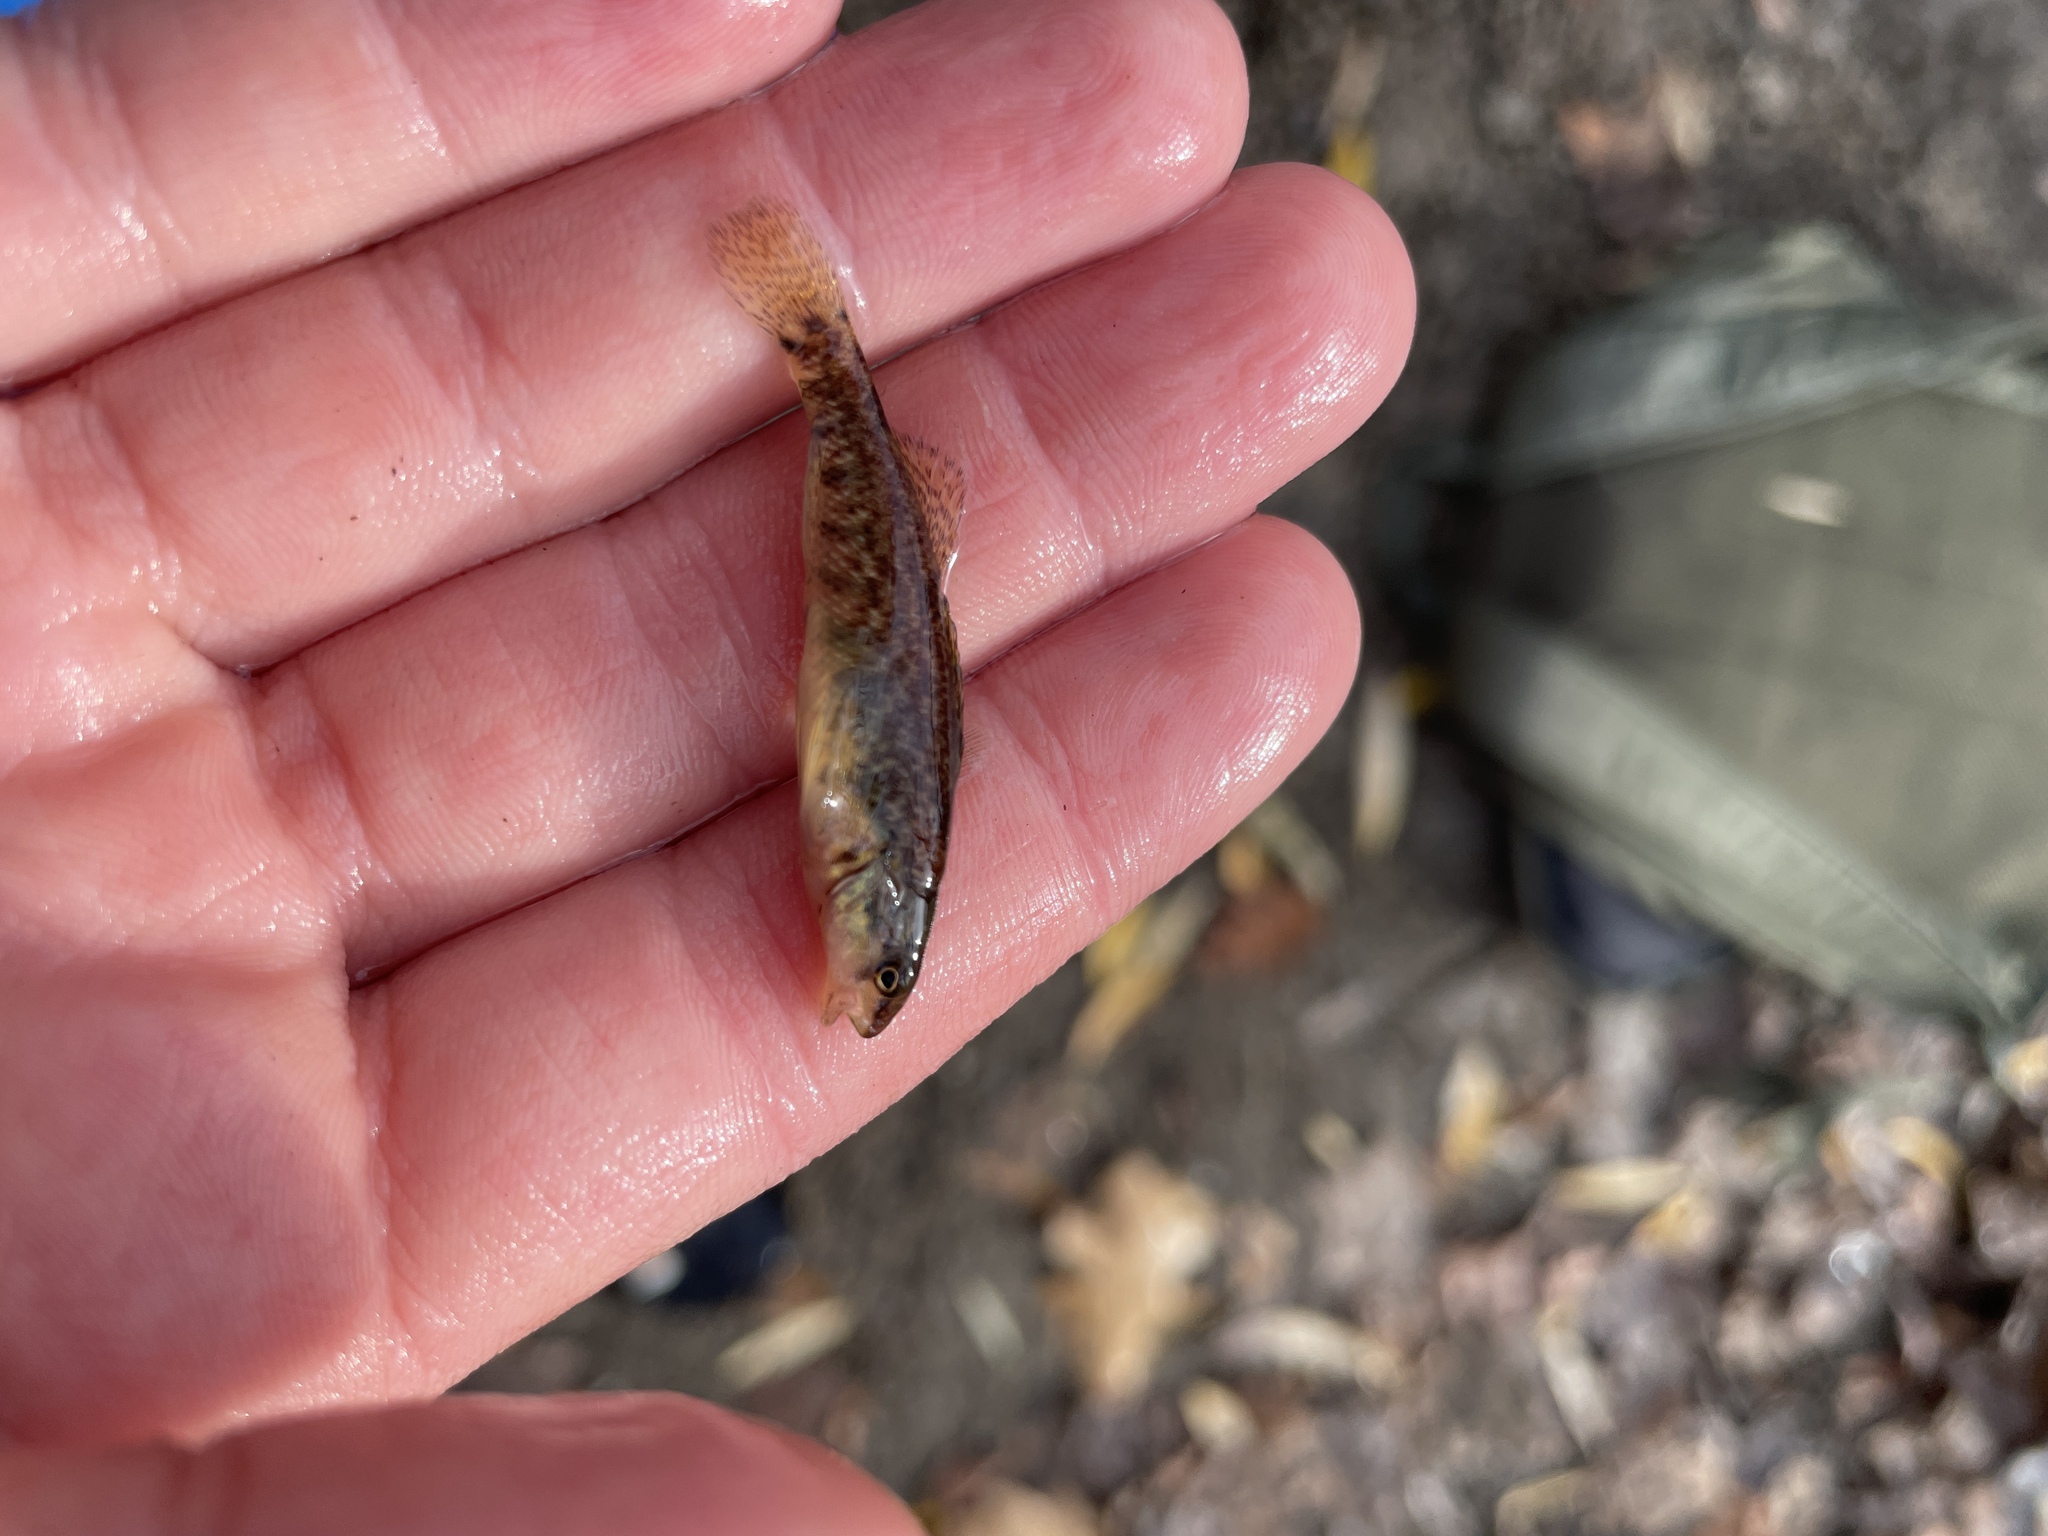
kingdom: Animalia
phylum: Chordata
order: Perciformes
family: Percidae
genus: Etheostoma
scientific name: Etheostoma caeruleum
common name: Rainbow darter
